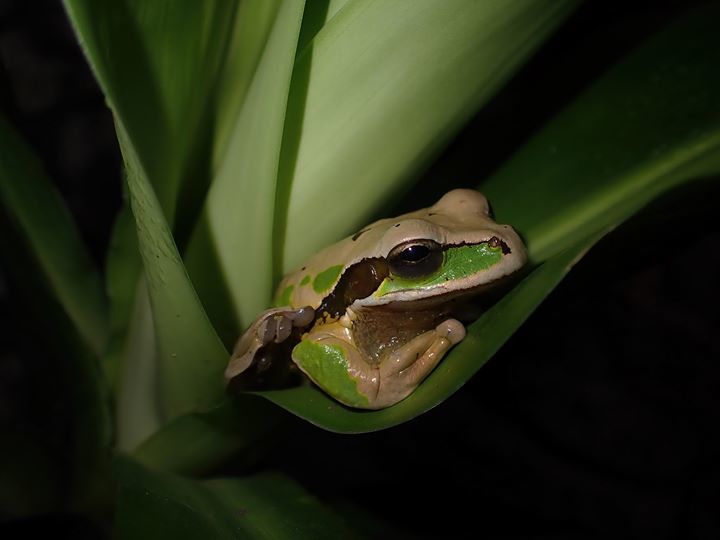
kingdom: Animalia
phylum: Chordata
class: Amphibia
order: Anura
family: Hylidae
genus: Smilisca
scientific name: Smilisca phaeota
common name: Central american smilisca
